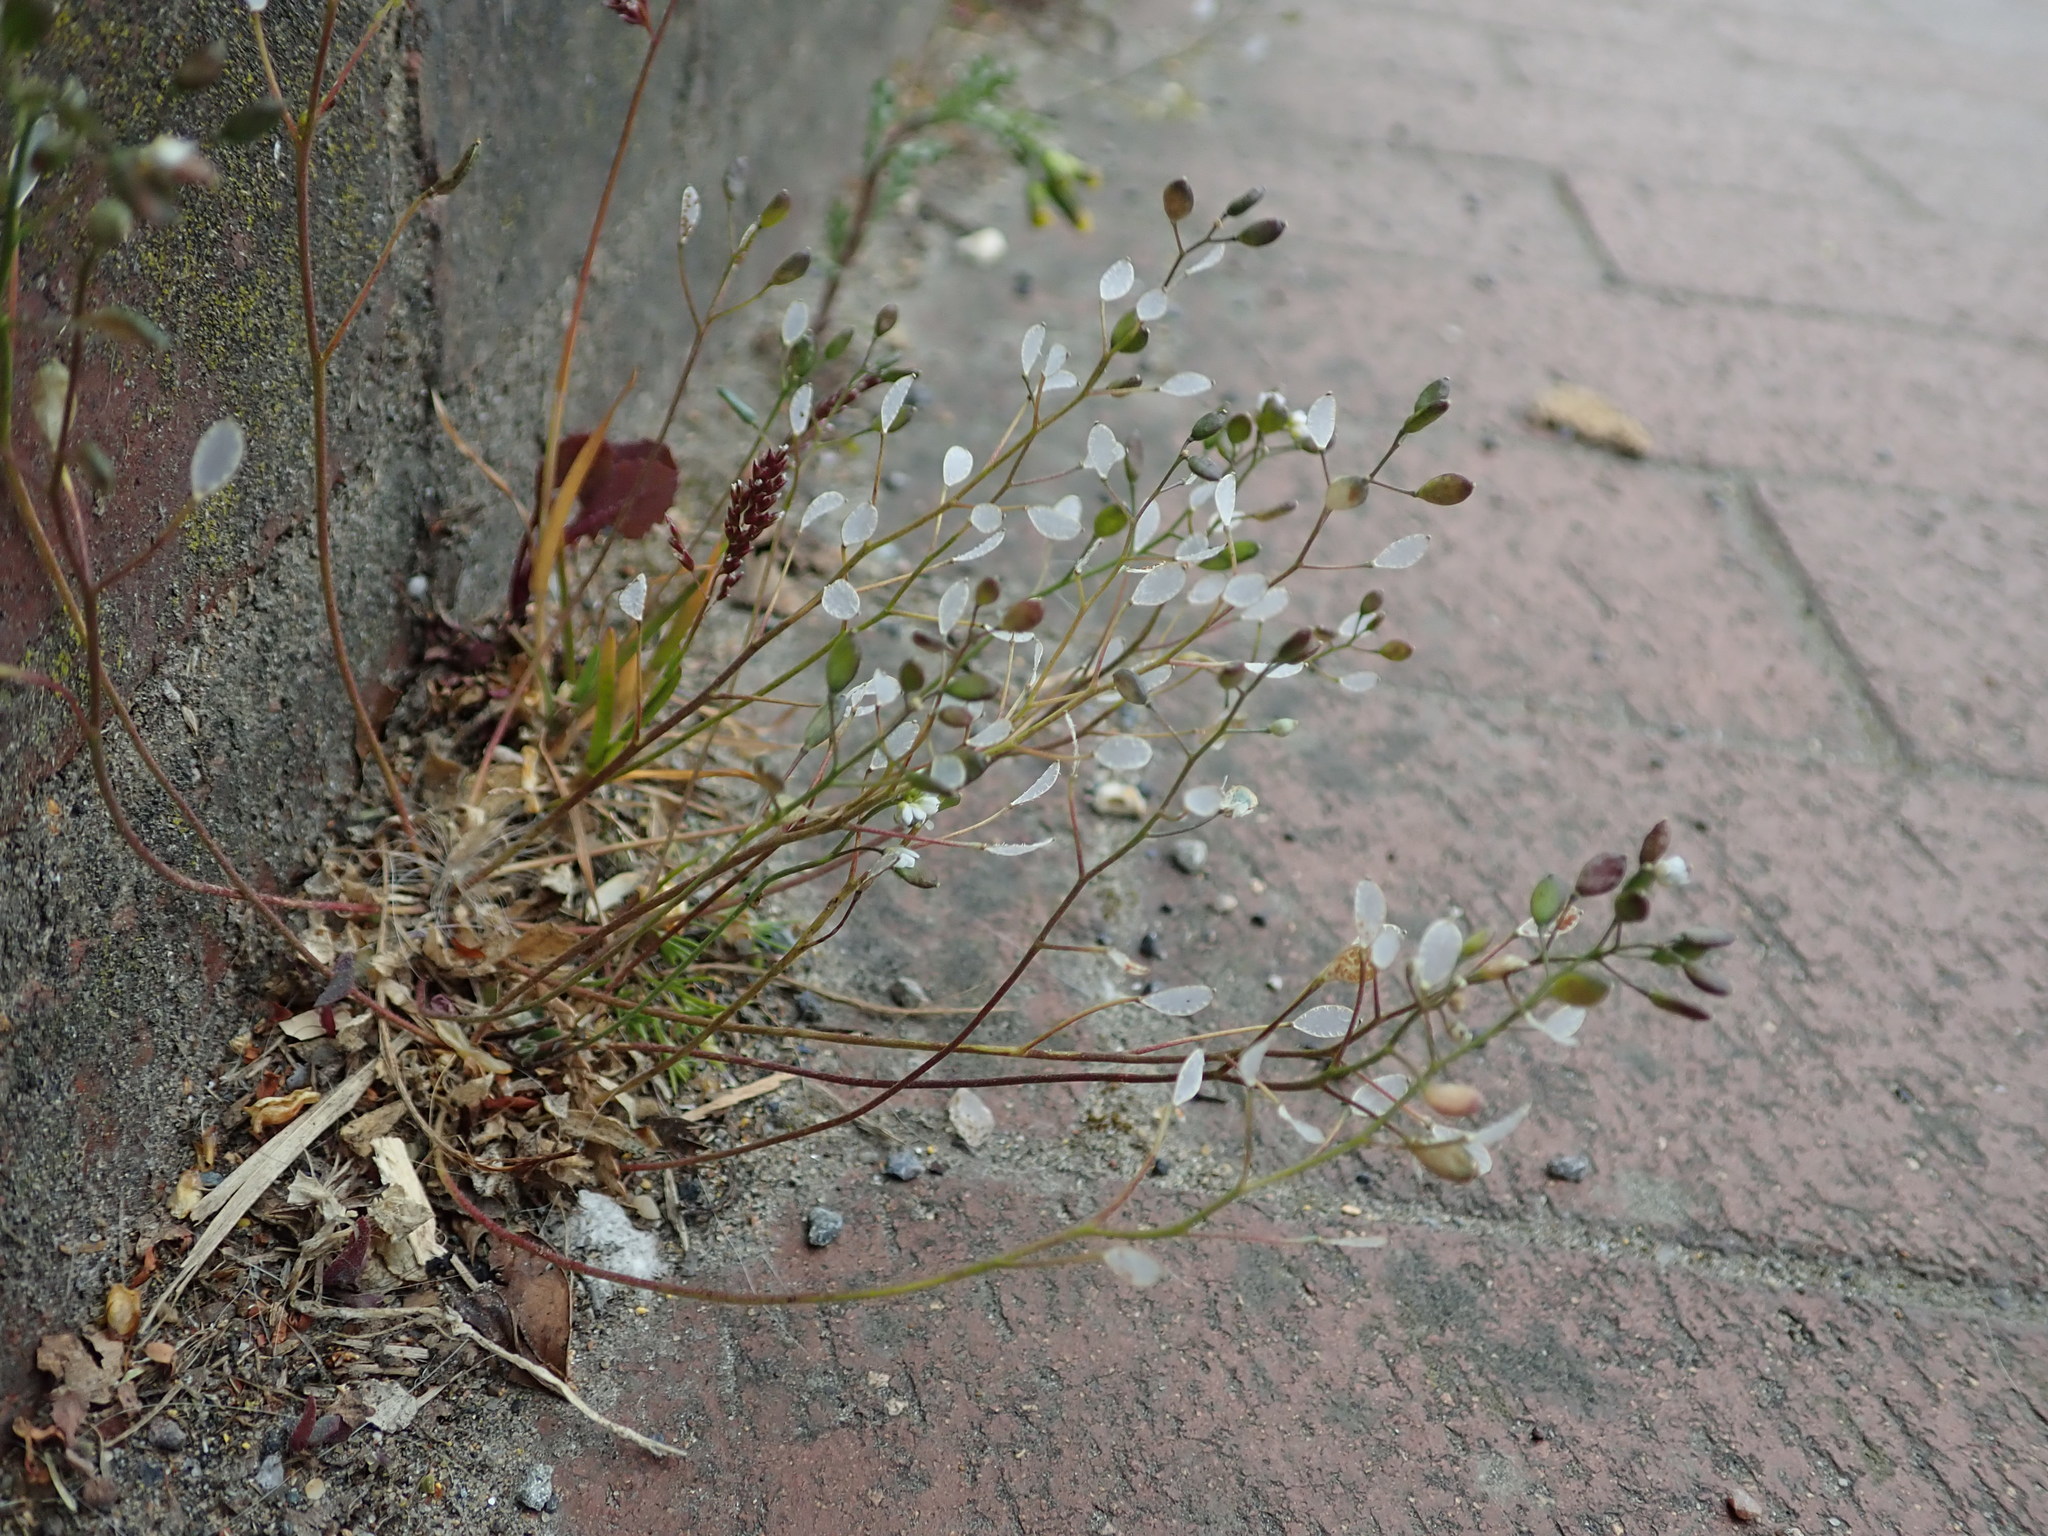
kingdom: Plantae
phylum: Tracheophyta
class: Magnoliopsida
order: Brassicales
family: Brassicaceae
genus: Draba
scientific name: Draba verna
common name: Spring draba
